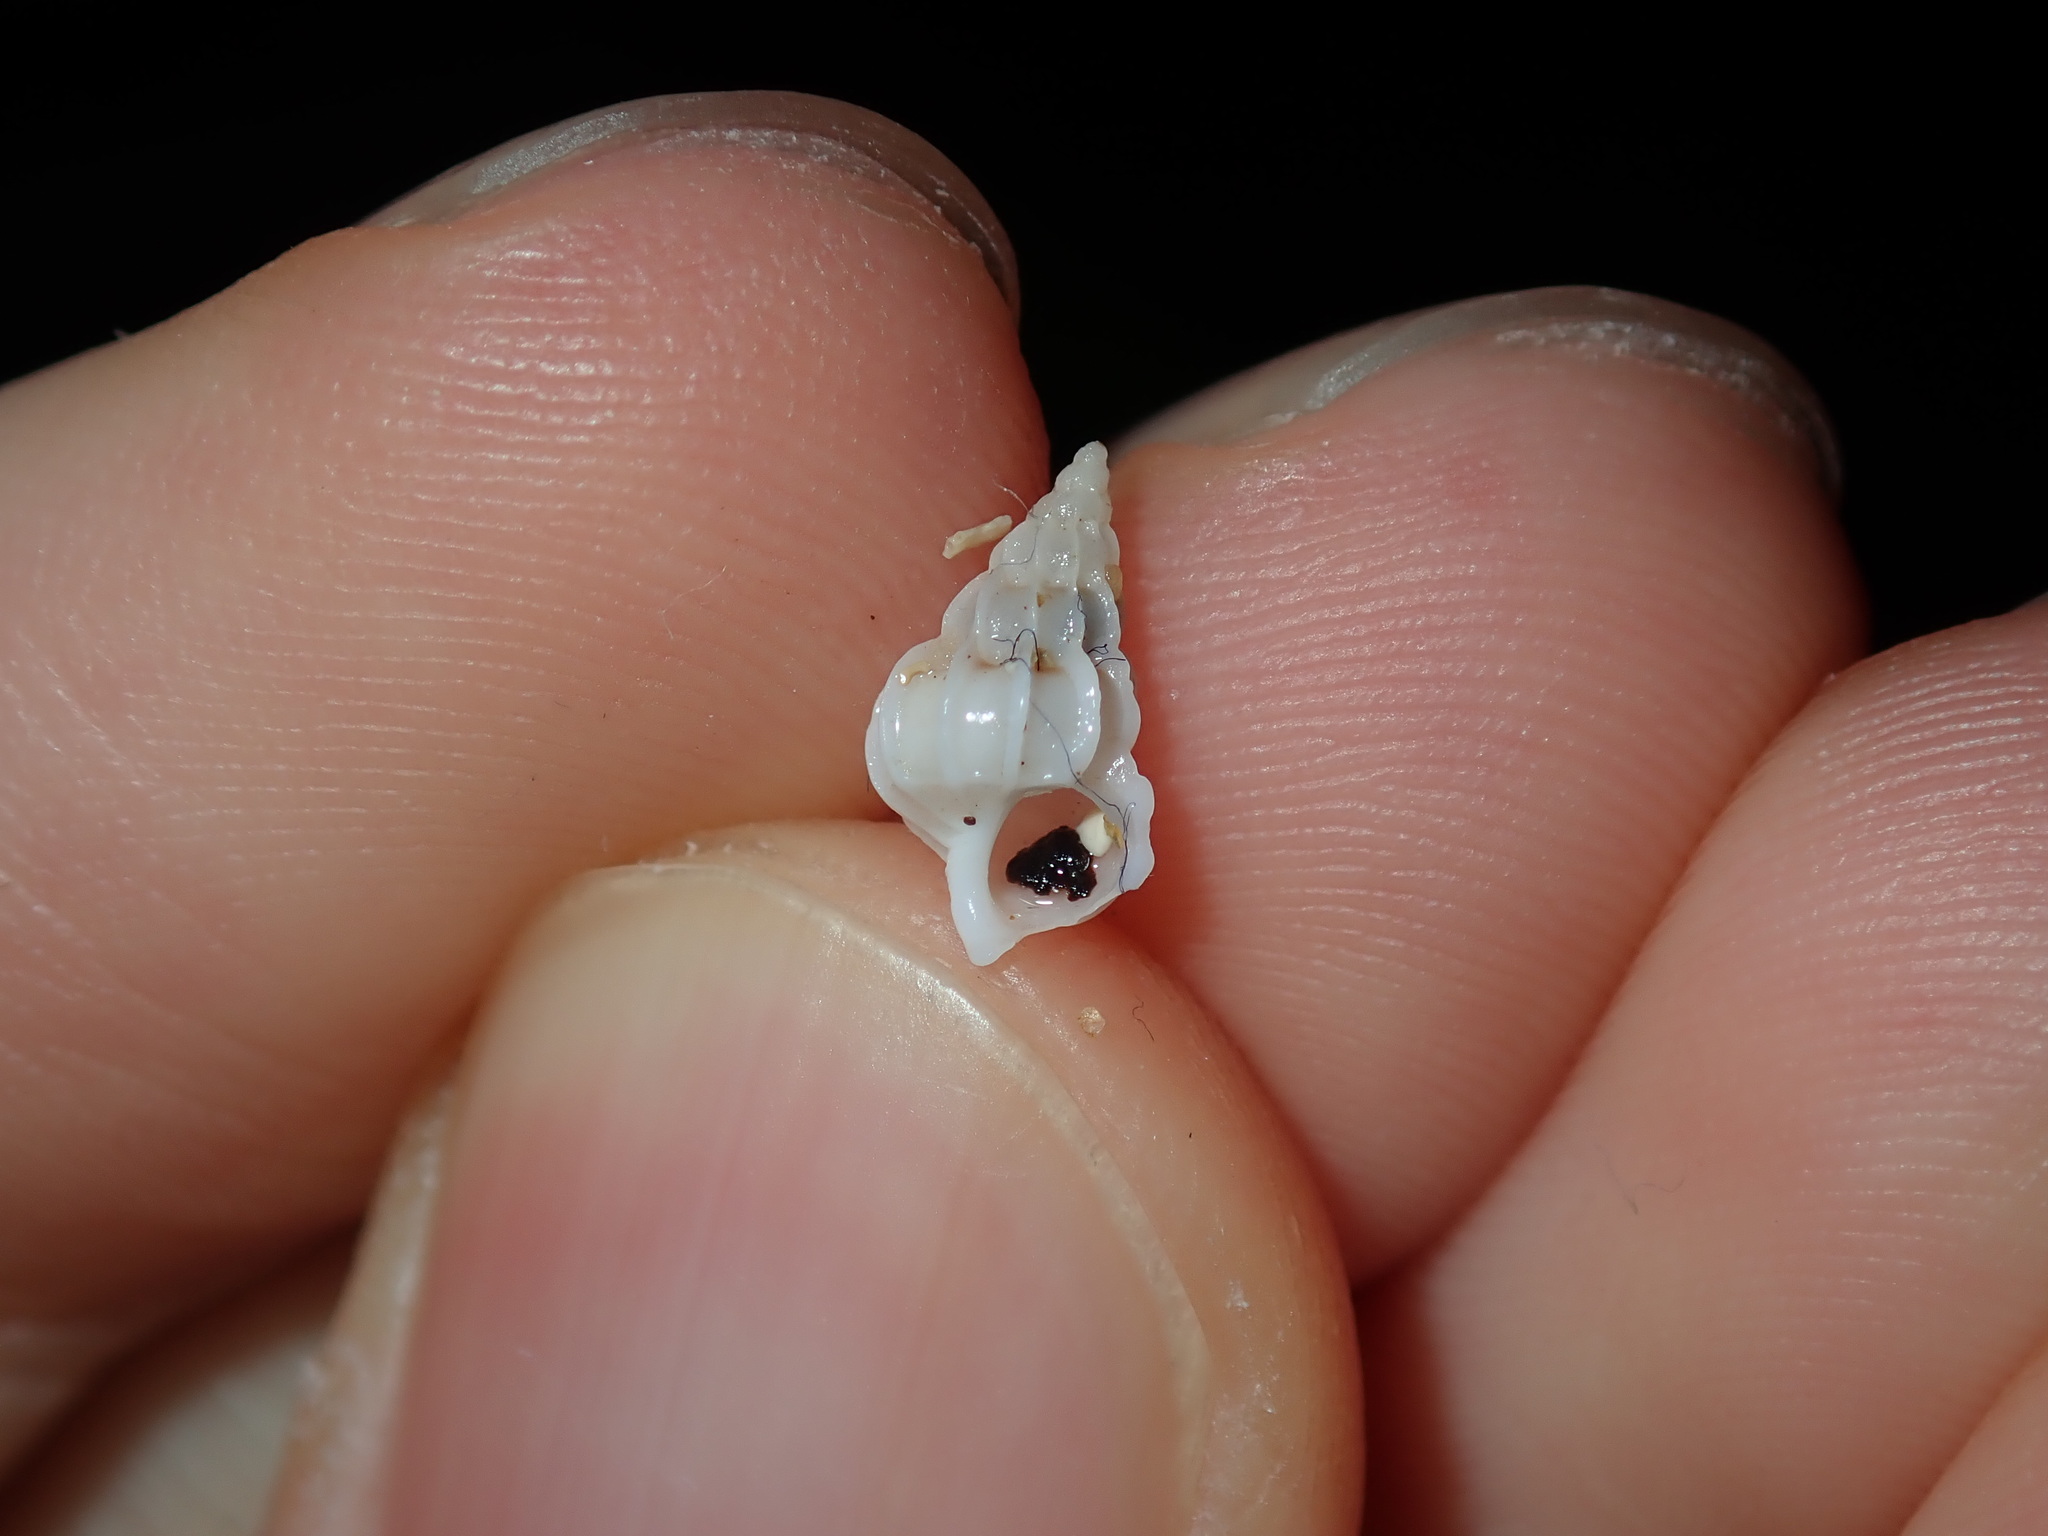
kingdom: Animalia
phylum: Mollusca
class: Gastropoda
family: Epitoniidae
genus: Gyroscala
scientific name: Gyroscala commutata
